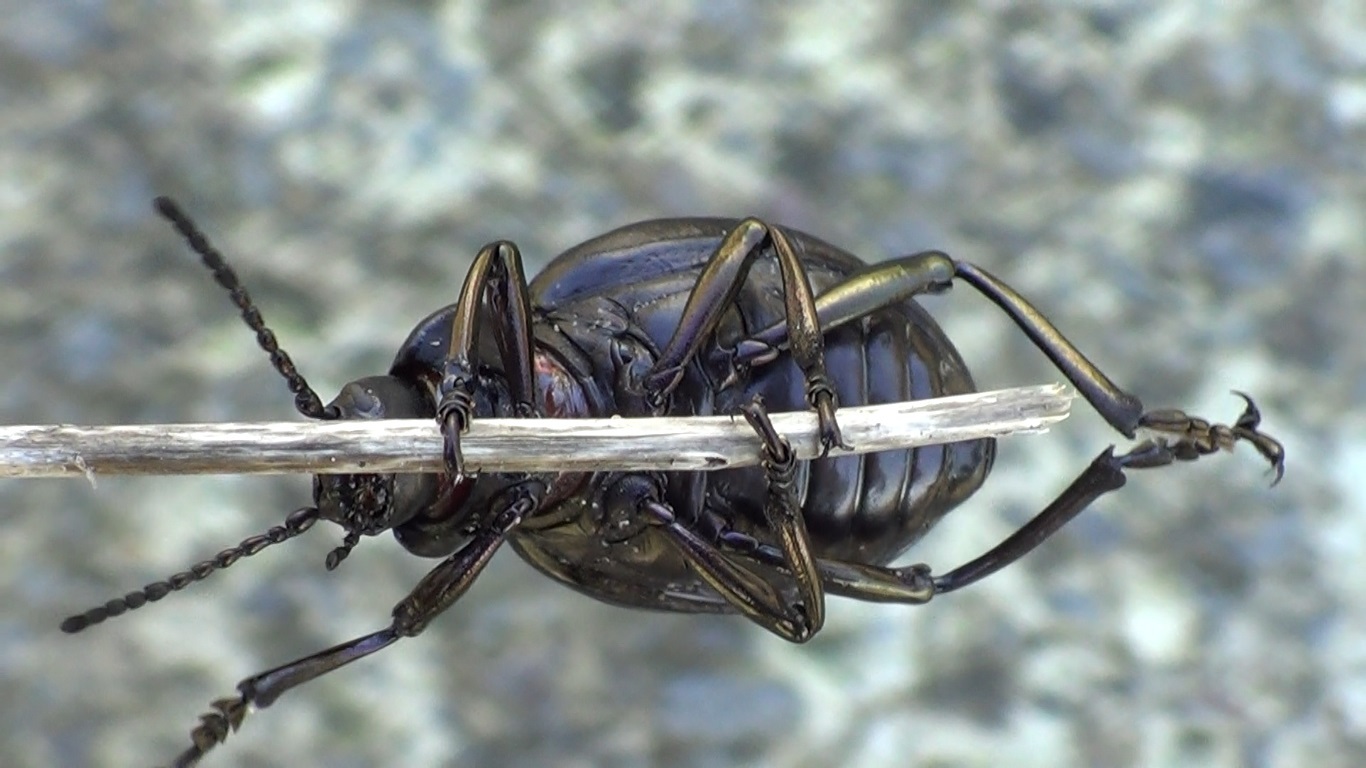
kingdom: Animalia
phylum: Arthropoda
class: Insecta
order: Coleoptera
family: Chrysomelidae
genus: Timarcha
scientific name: Timarcha pimelioides
